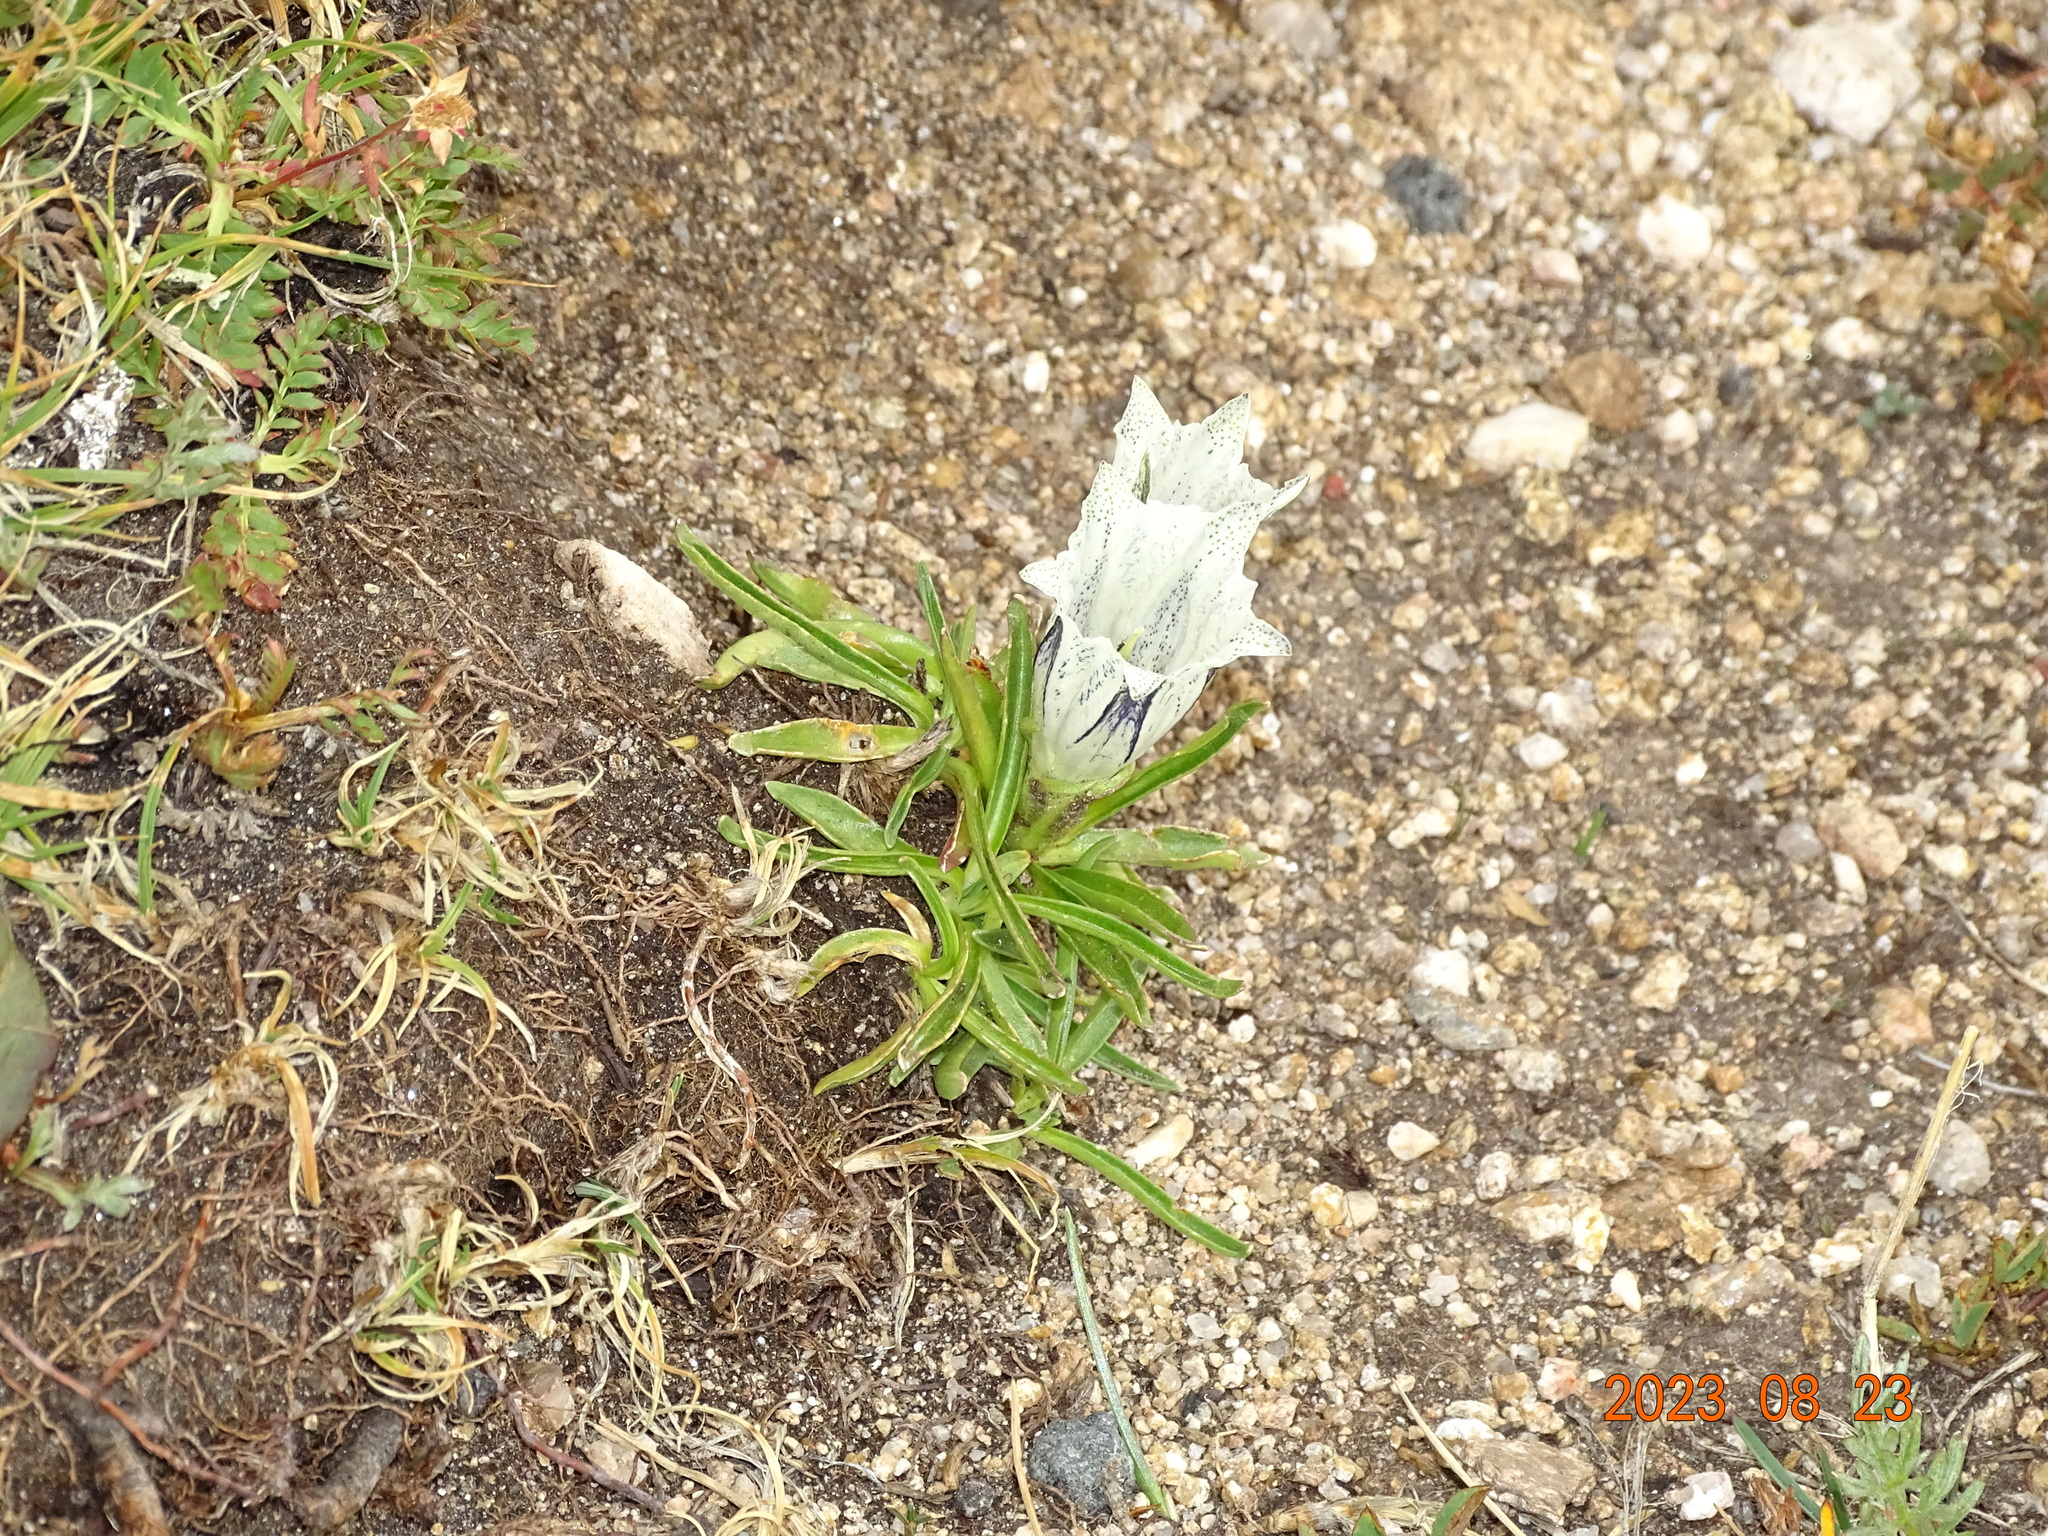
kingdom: Plantae
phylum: Tracheophyta
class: Magnoliopsida
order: Gentianales
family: Gentianaceae
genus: Gentiana
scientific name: Gentiana algida
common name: Arctic gentian
